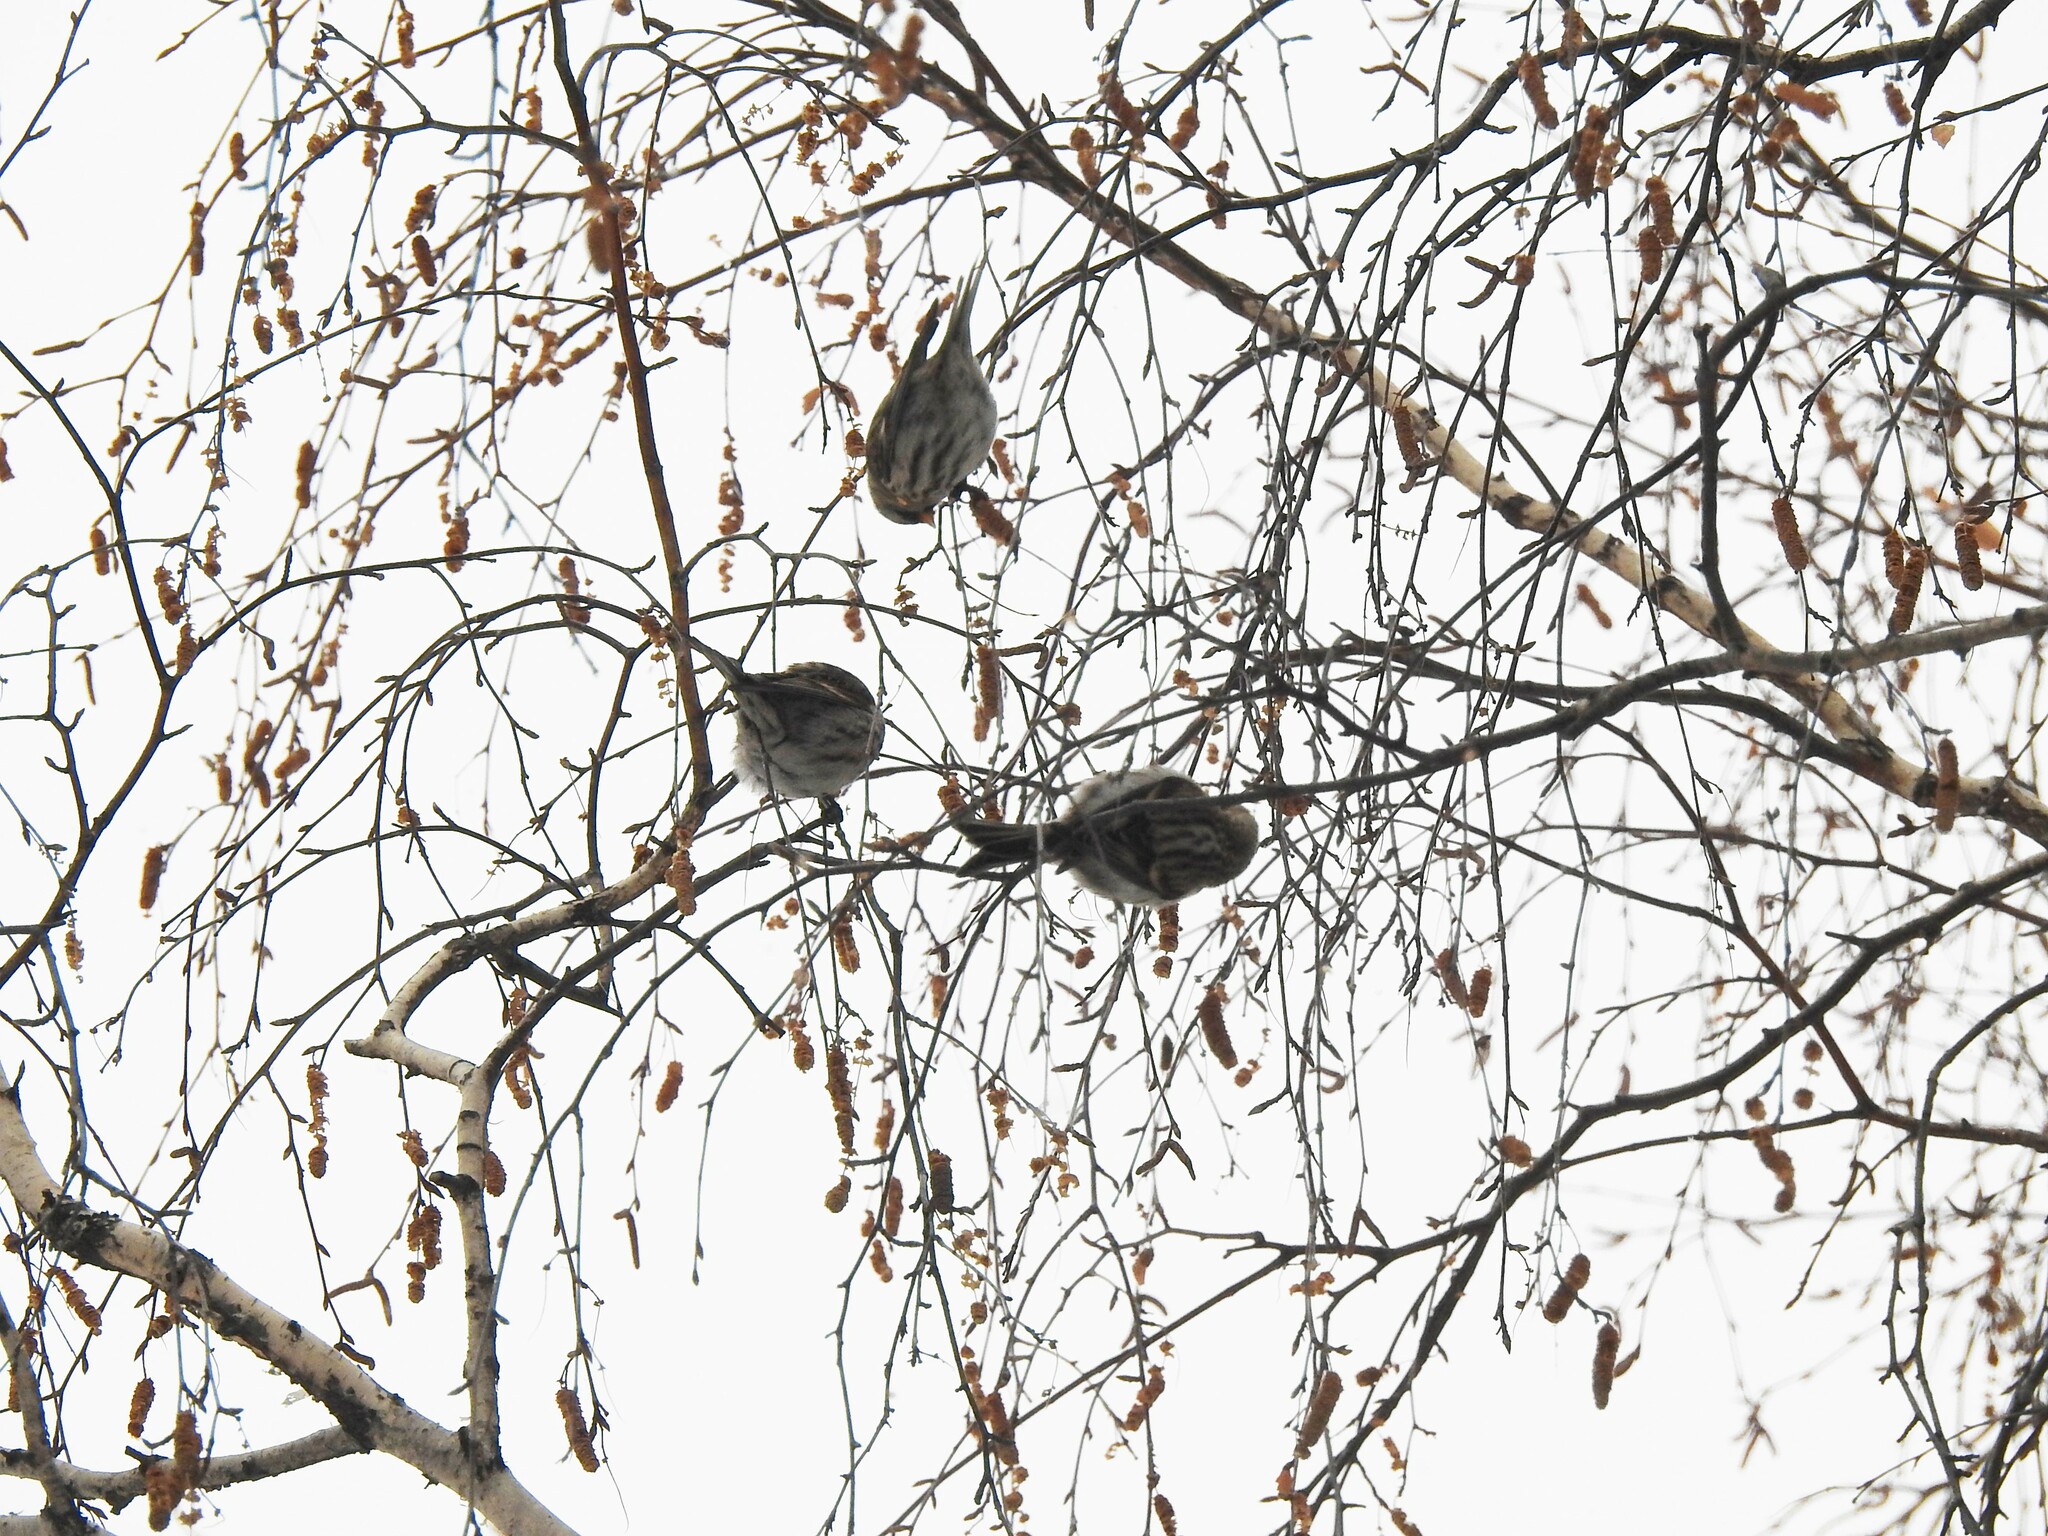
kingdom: Animalia
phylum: Chordata
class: Aves
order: Passeriformes
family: Fringillidae
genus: Acanthis
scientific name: Acanthis flammea
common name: Common redpoll
